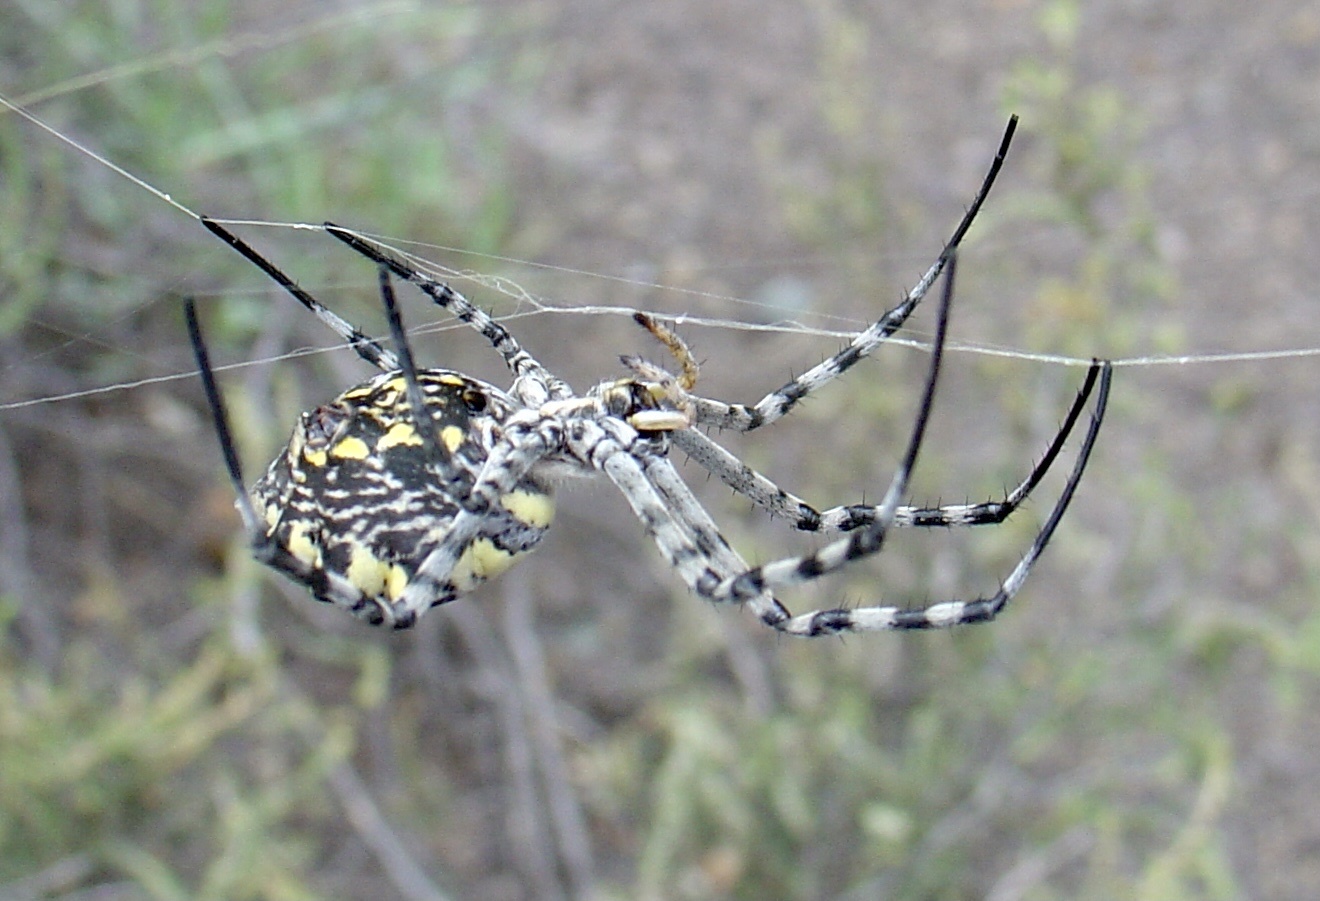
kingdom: Animalia
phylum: Arthropoda
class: Arachnida
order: Araneae
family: Araneidae
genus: Argiope
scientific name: Argiope australis
